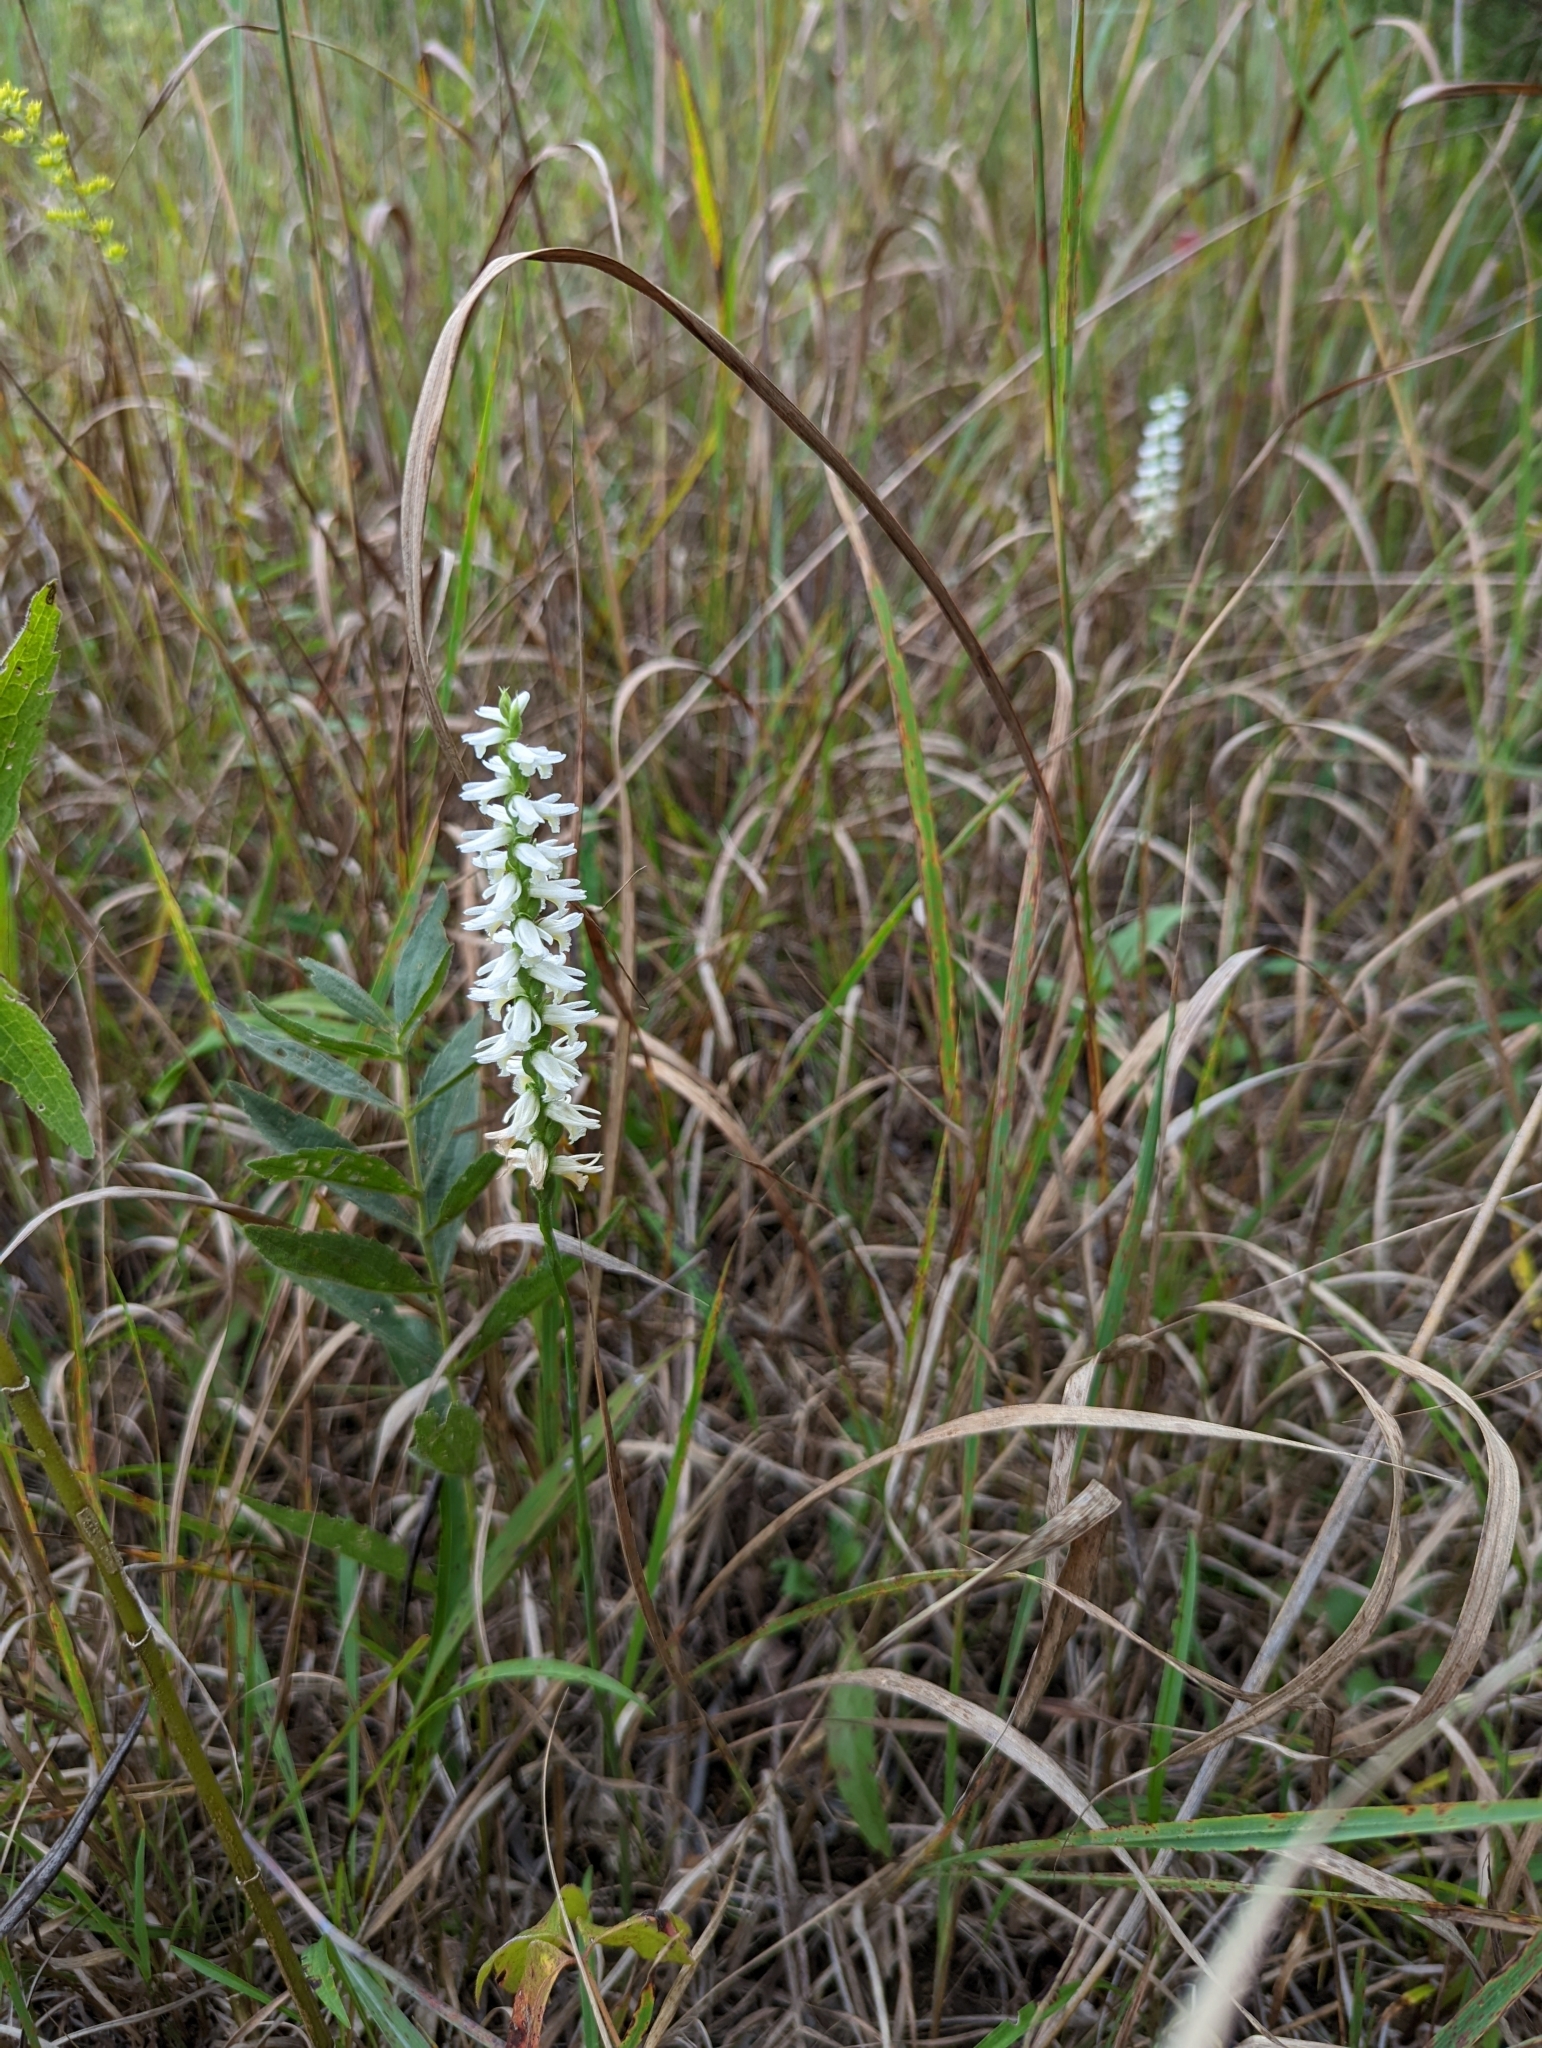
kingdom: Plantae
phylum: Tracheophyta
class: Liliopsida
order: Asparagales
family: Orchidaceae
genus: Spiranthes
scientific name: Spiranthes magnicamporum
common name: Great plains ladies'-tresses
